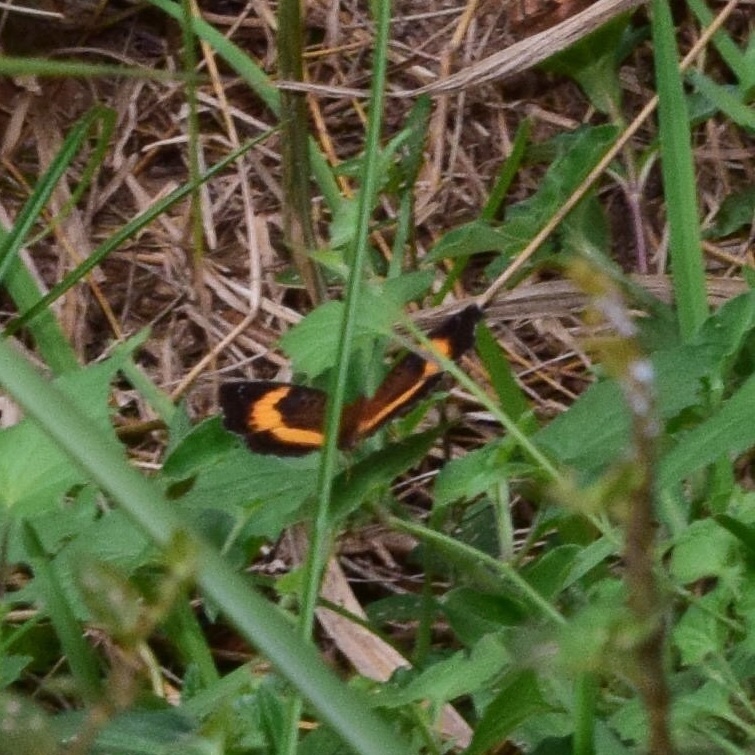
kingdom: Animalia
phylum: Arthropoda
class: Insecta
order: Lepidoptera
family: Nymphalidae
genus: Junonia
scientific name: Junonia terea
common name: Soldier pansy
